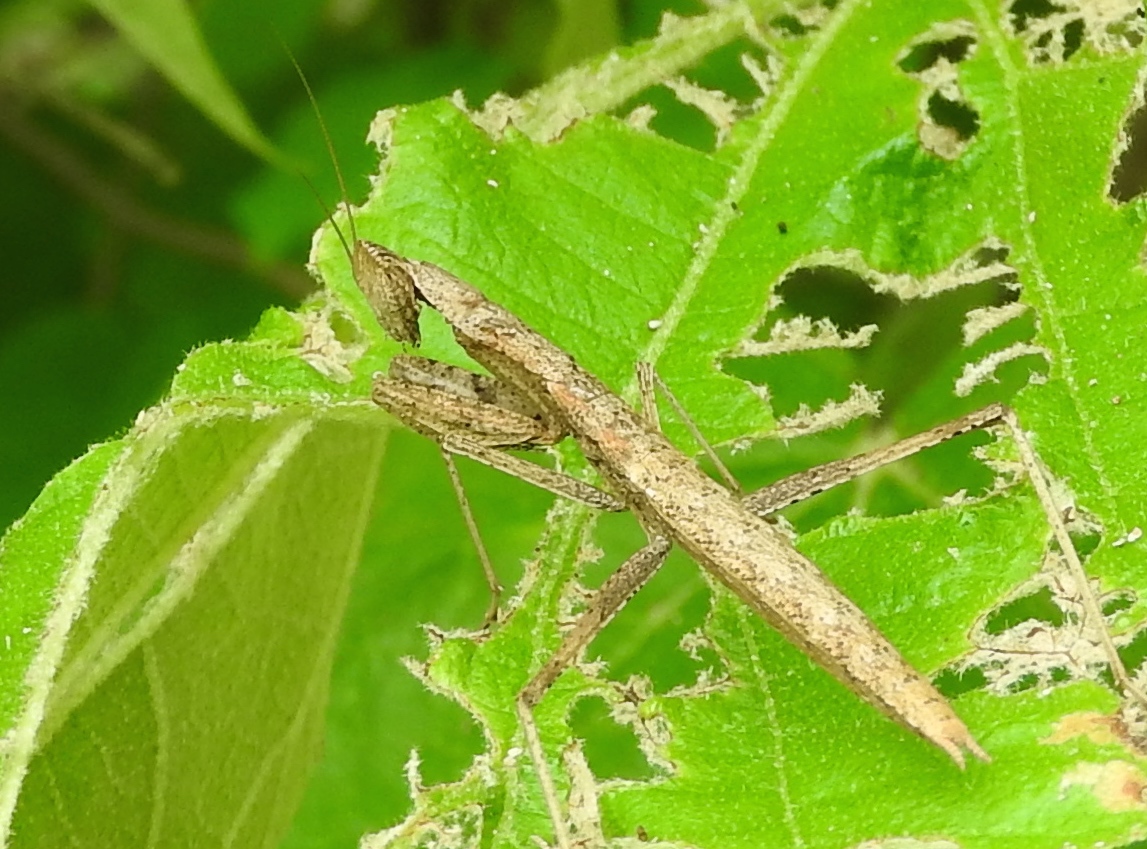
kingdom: Animalia
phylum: Arthropoda
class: Insecta
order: Mantodea
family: Amelidae
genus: Yersinia
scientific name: Yersinia mexicana
